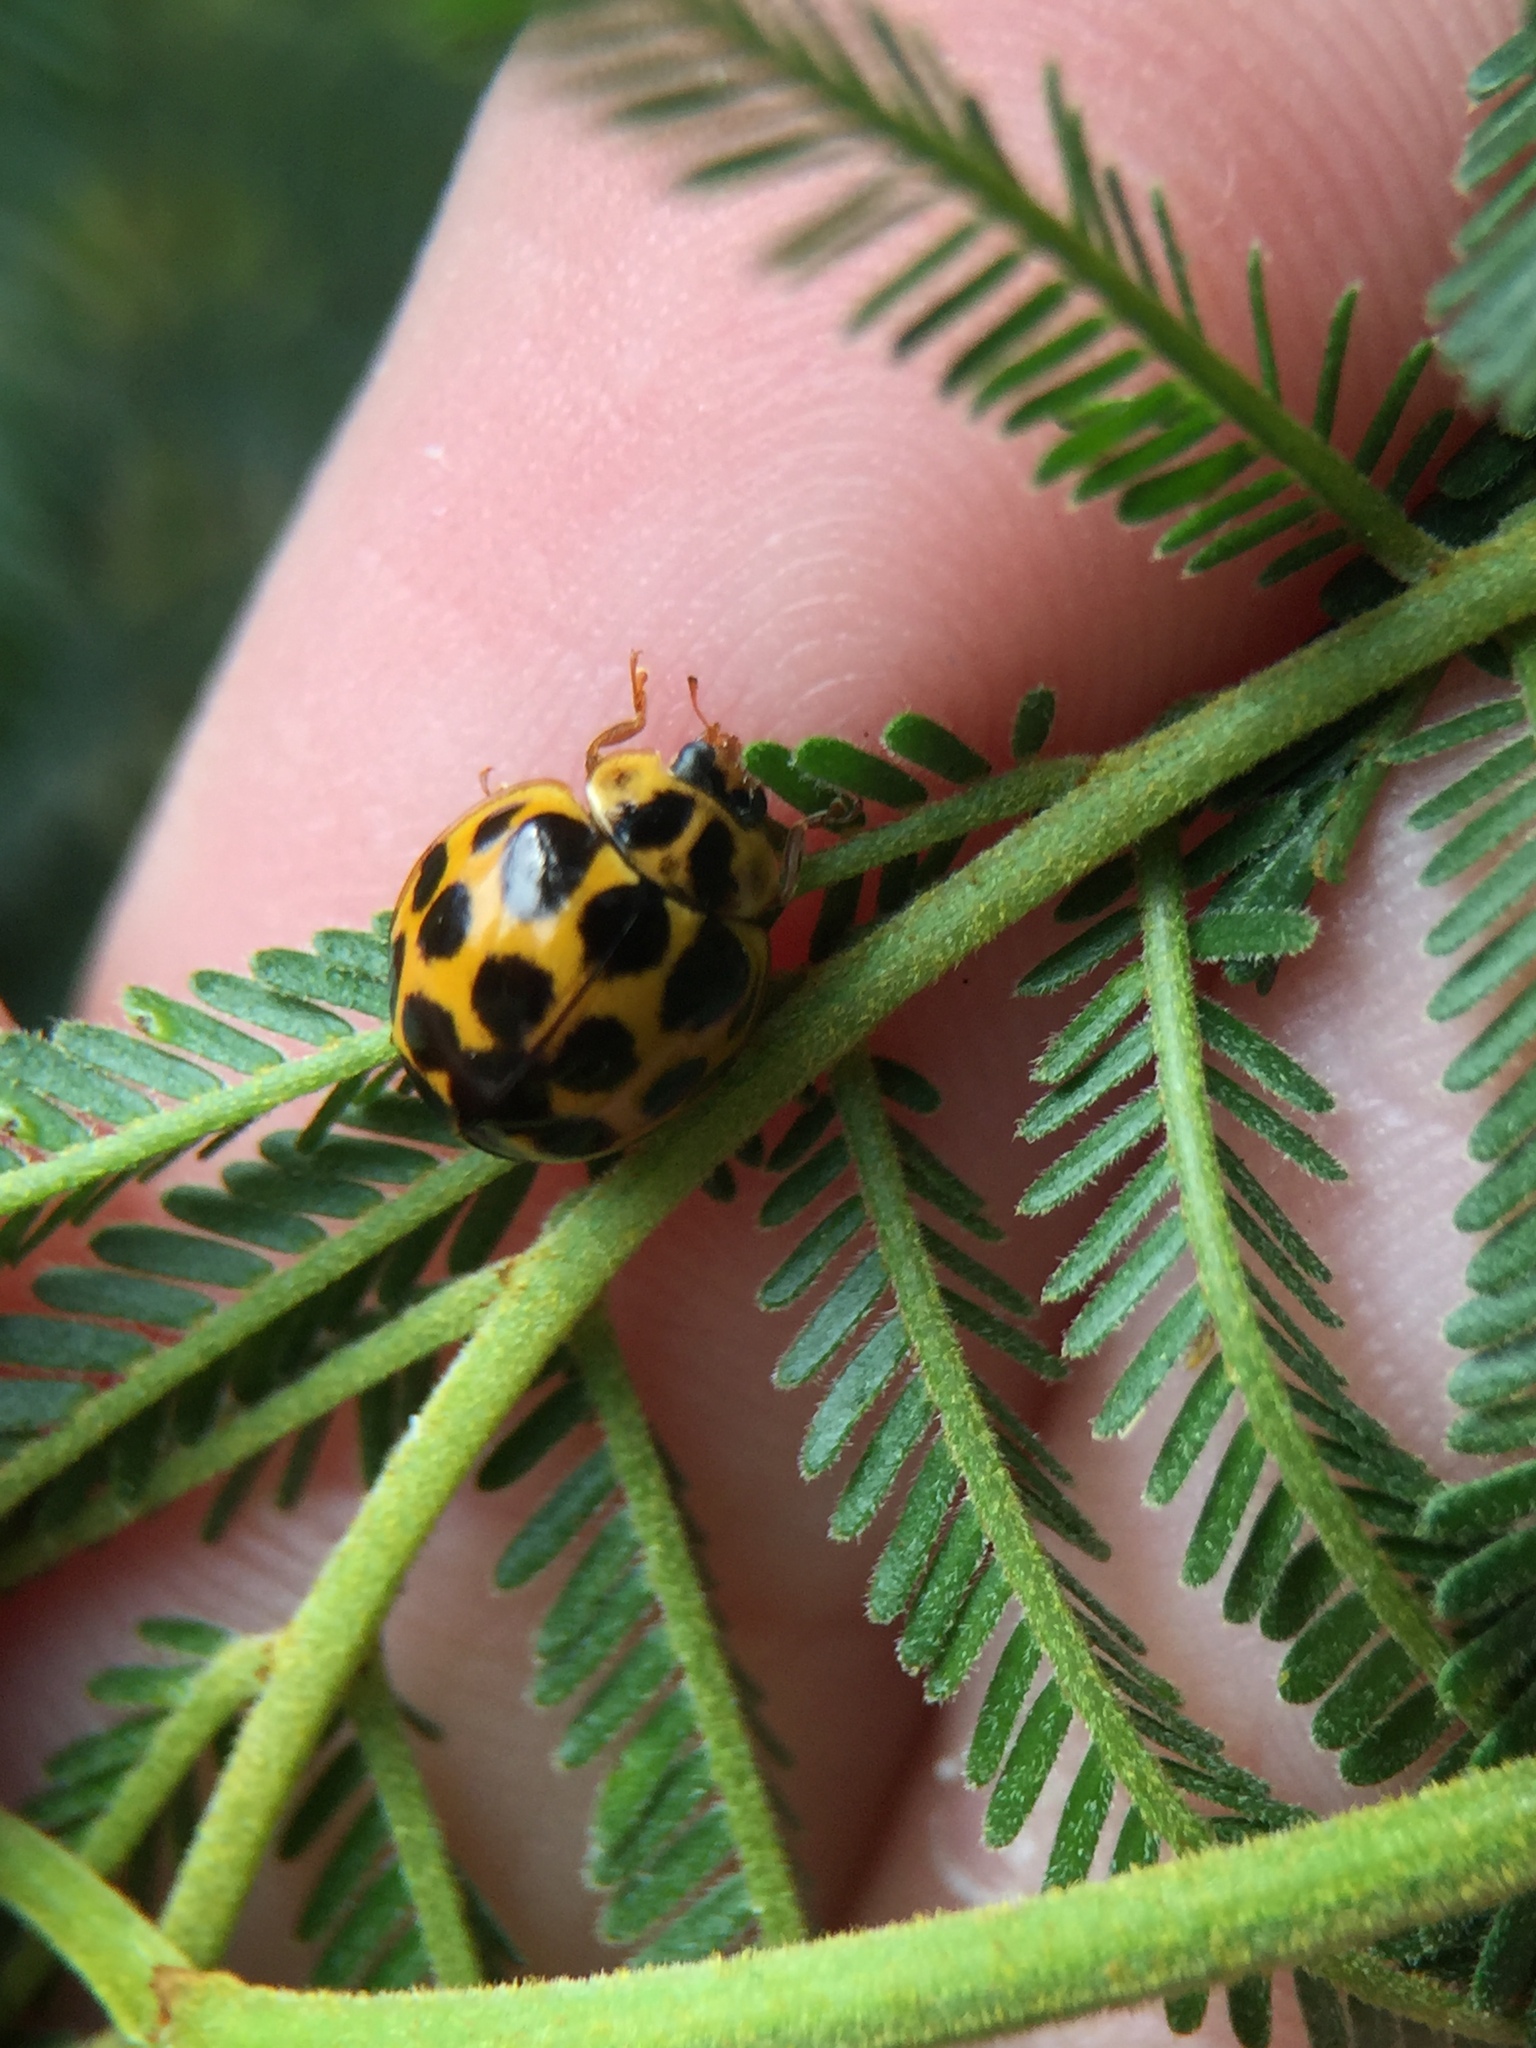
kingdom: Animalia
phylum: Arthropoda
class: Insecta
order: Coleoptera
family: Coccinellidae
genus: Harmonia
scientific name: Harmonia conformis
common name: Common spotted ladybird beetle
